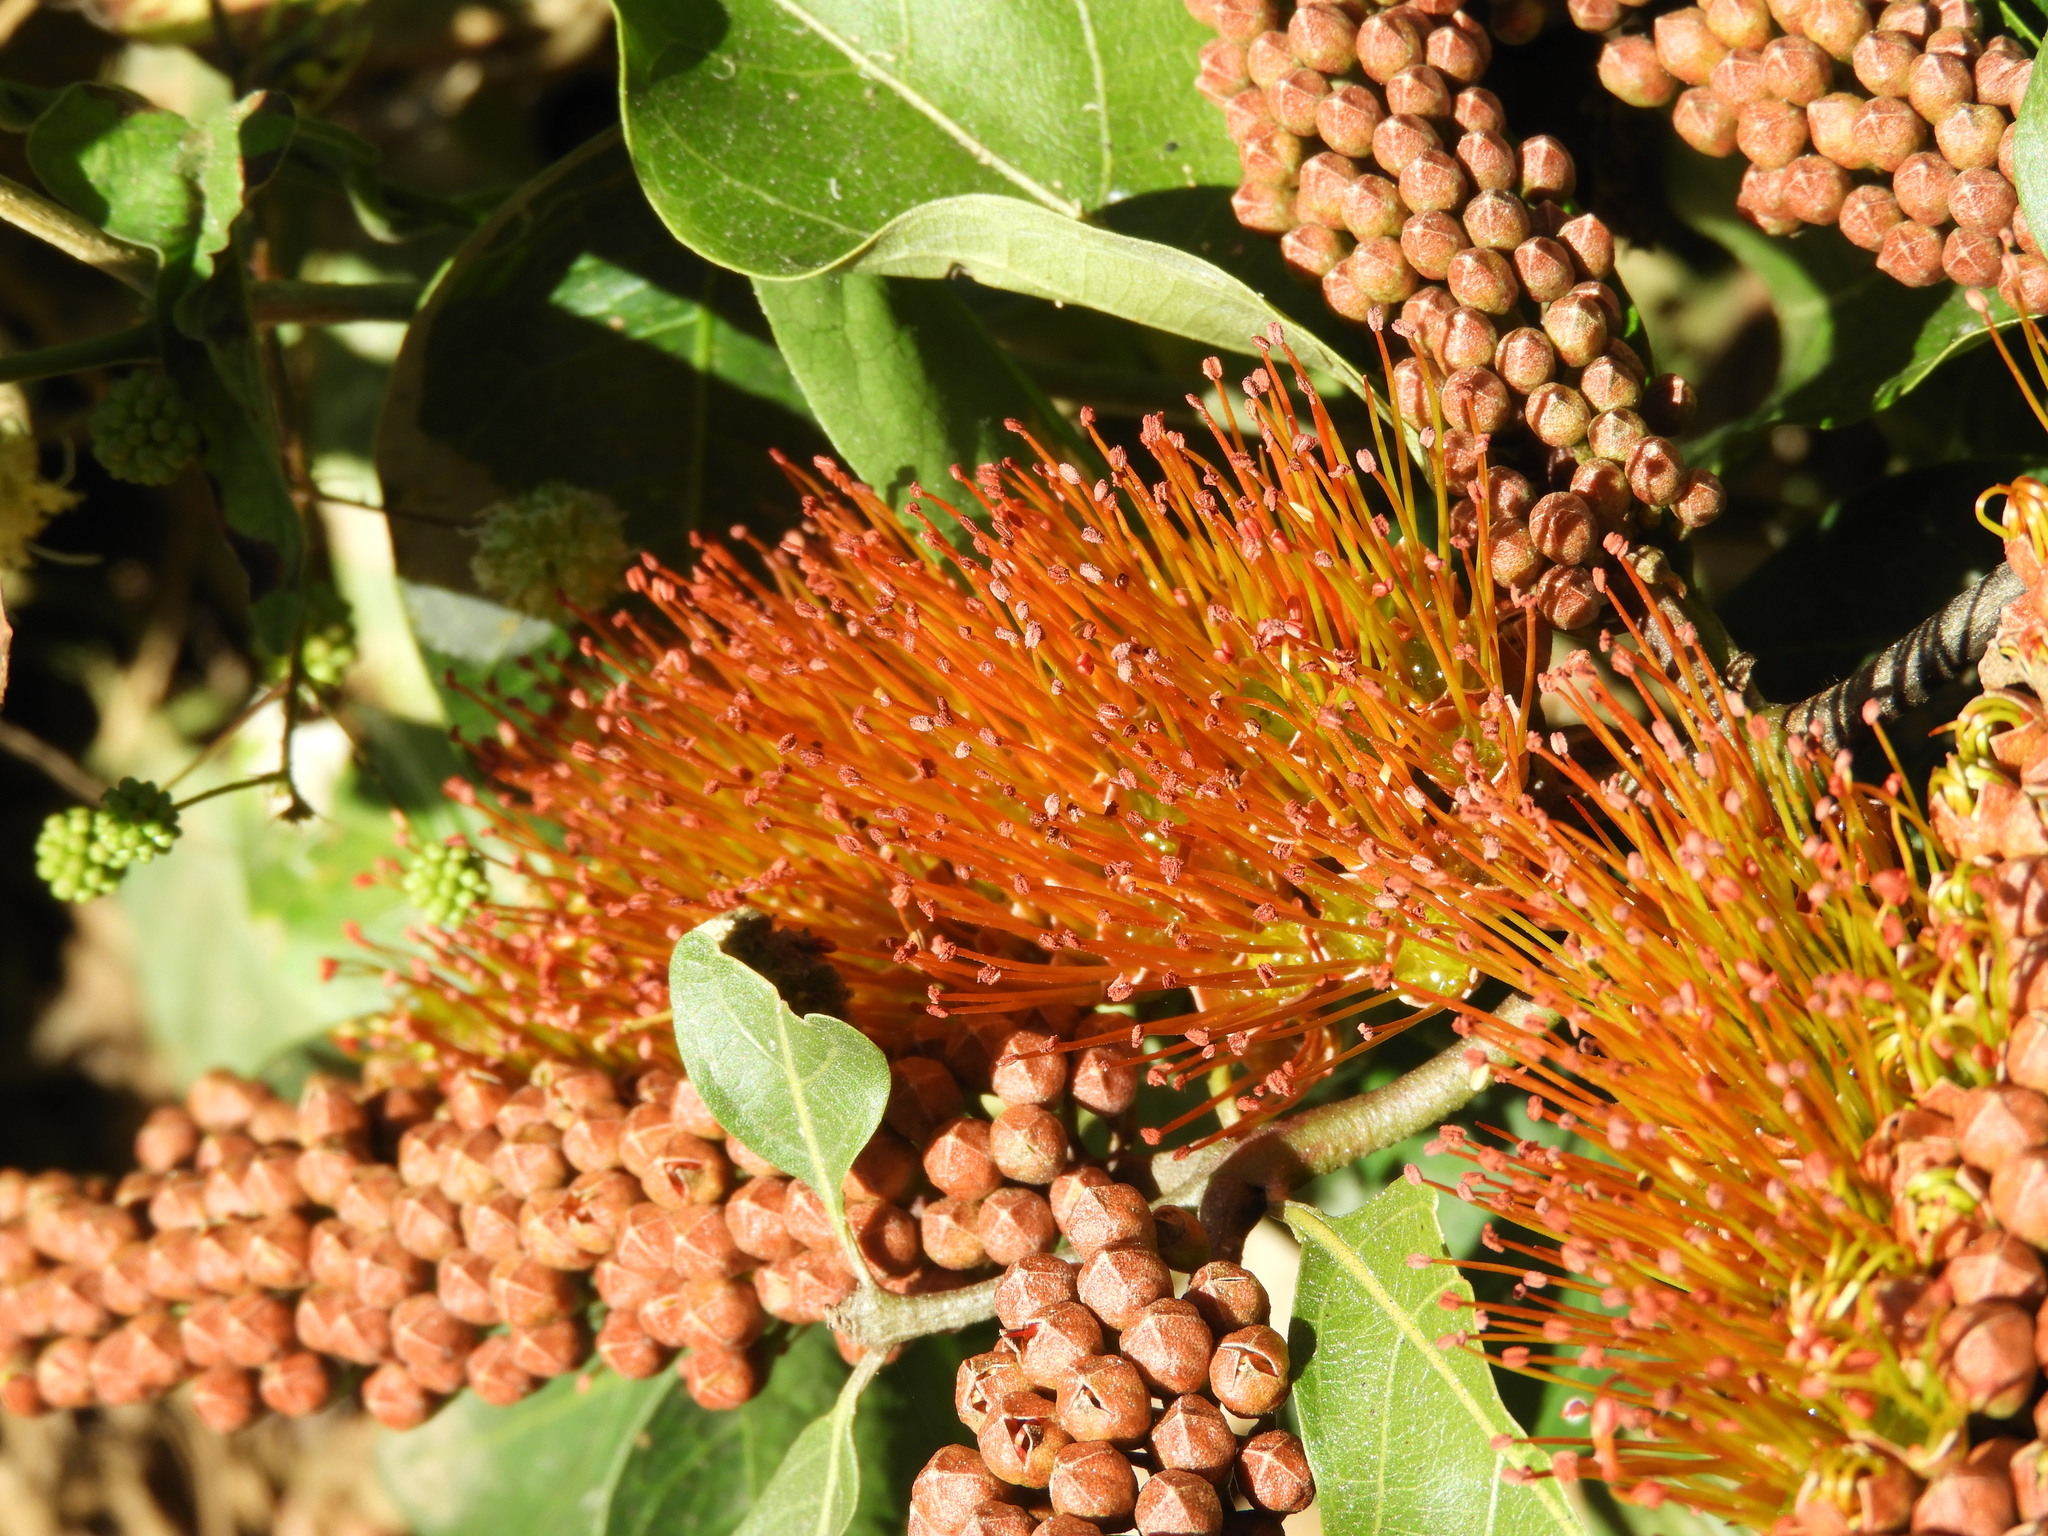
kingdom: Plantae
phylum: Tracheophyta
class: Magnoliopsida
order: Myrtales
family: Combretaceae
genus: Combretum
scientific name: Combretum farinosum
